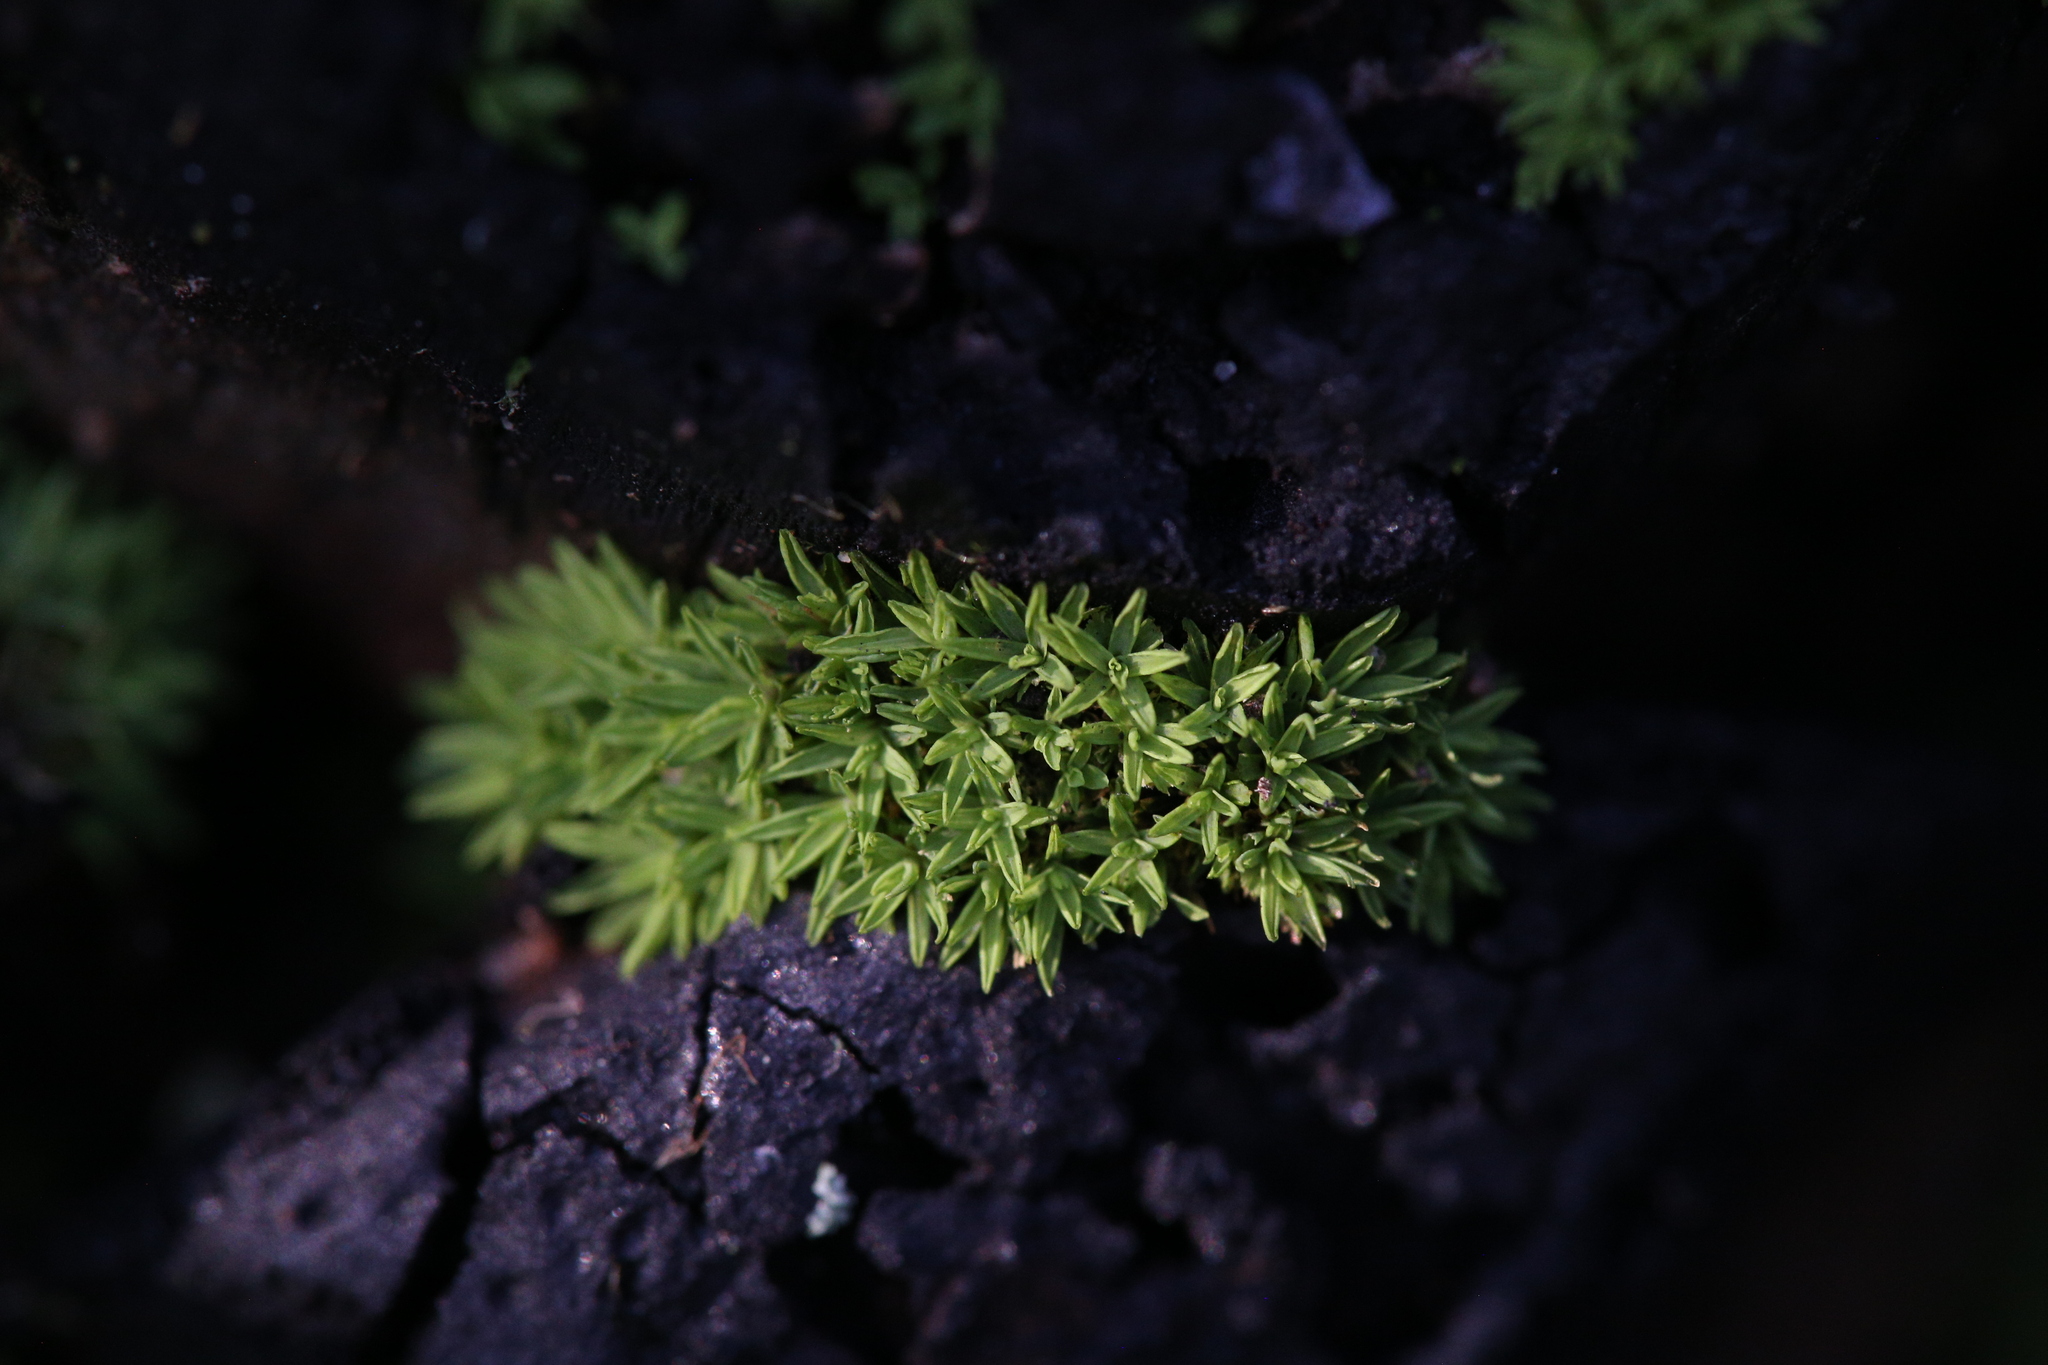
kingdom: Plantae
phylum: Bryophyta
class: Bryopsida
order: Pottiales
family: Pottiaceae
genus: Calymperastrum
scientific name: Calymperastrum latifolium
